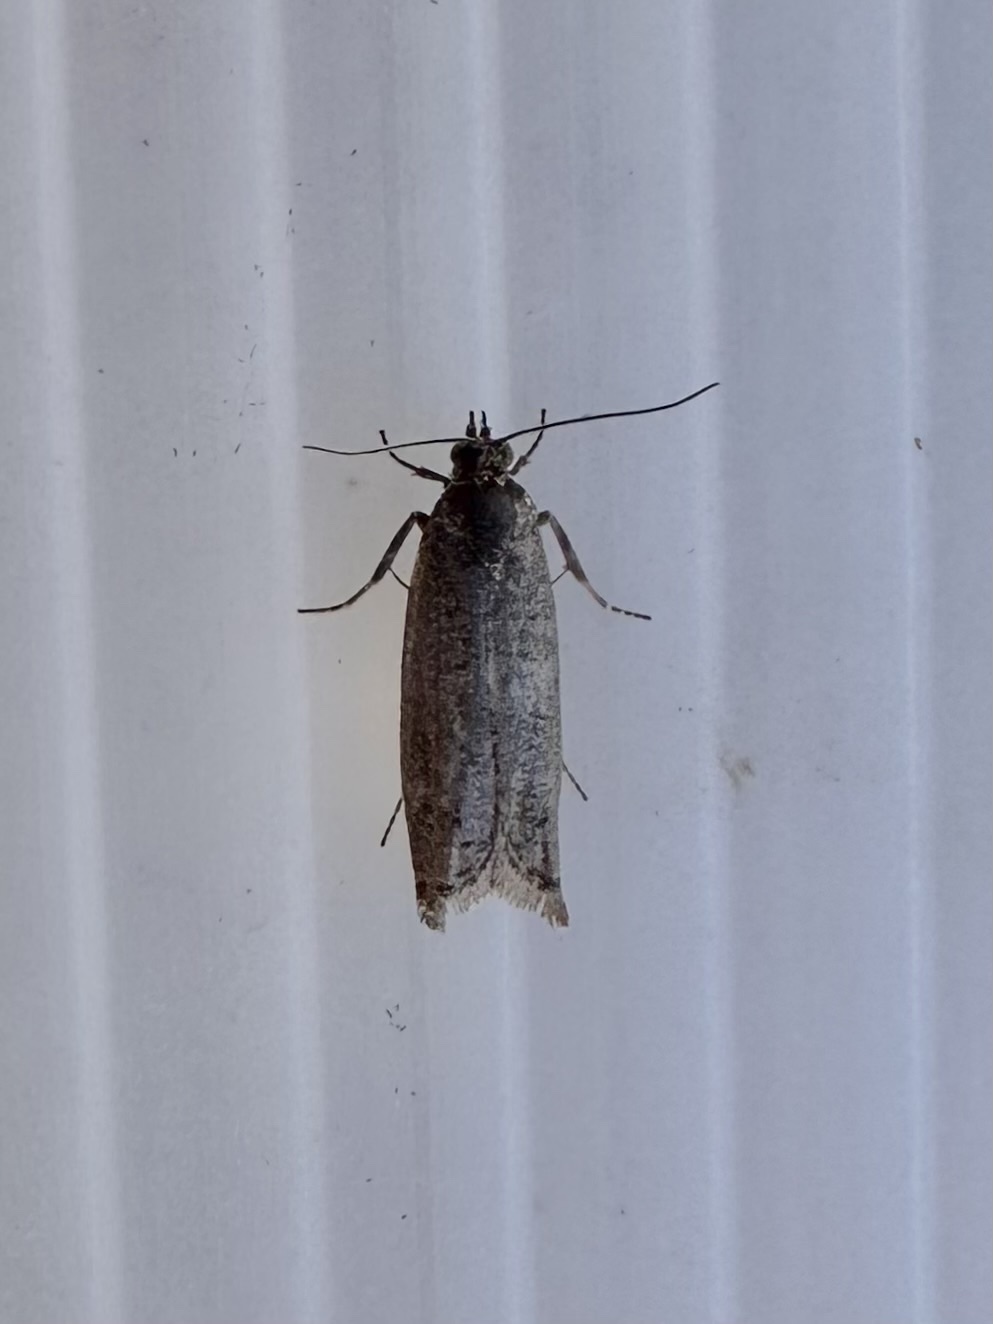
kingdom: Animalia
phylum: Arthropoda
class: Insecta
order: Lepidoptera
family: Tortricidae
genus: Pseudexentera
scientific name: Pseudexentera oregonana
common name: Early aspen leafcurler
